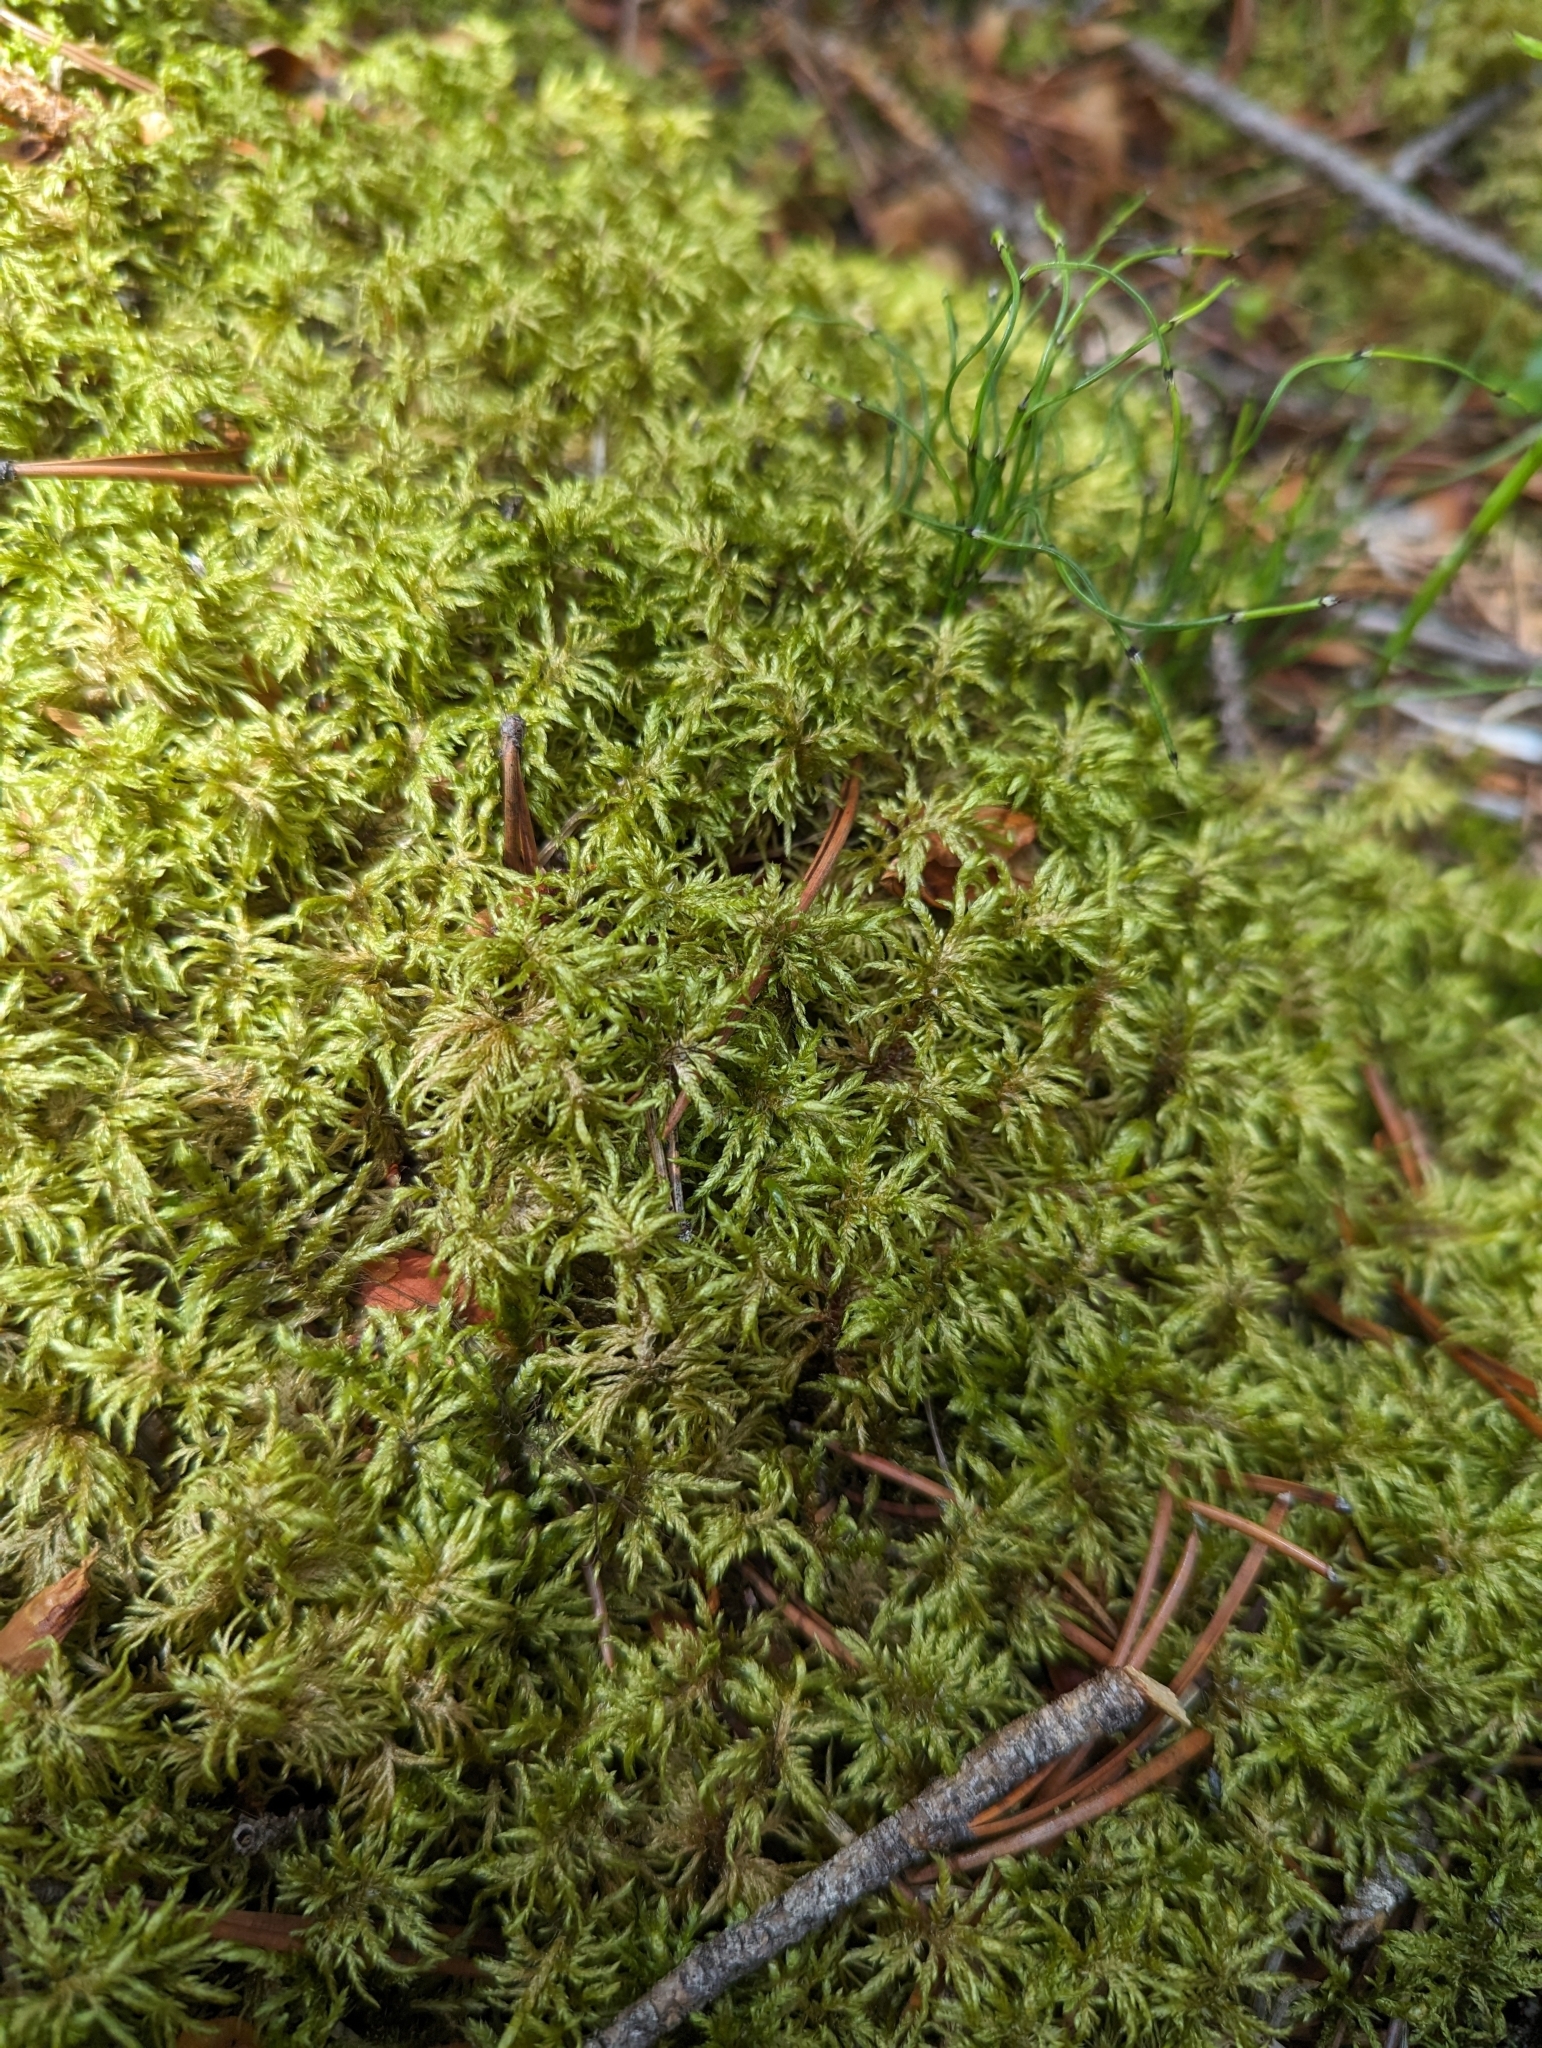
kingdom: Plantae
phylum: Bryophyta
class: Bryopsida
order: Hypnales
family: Hylocomiaceae
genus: Hylocomium
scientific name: Hylocomium splendens
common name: Stairstep moss
